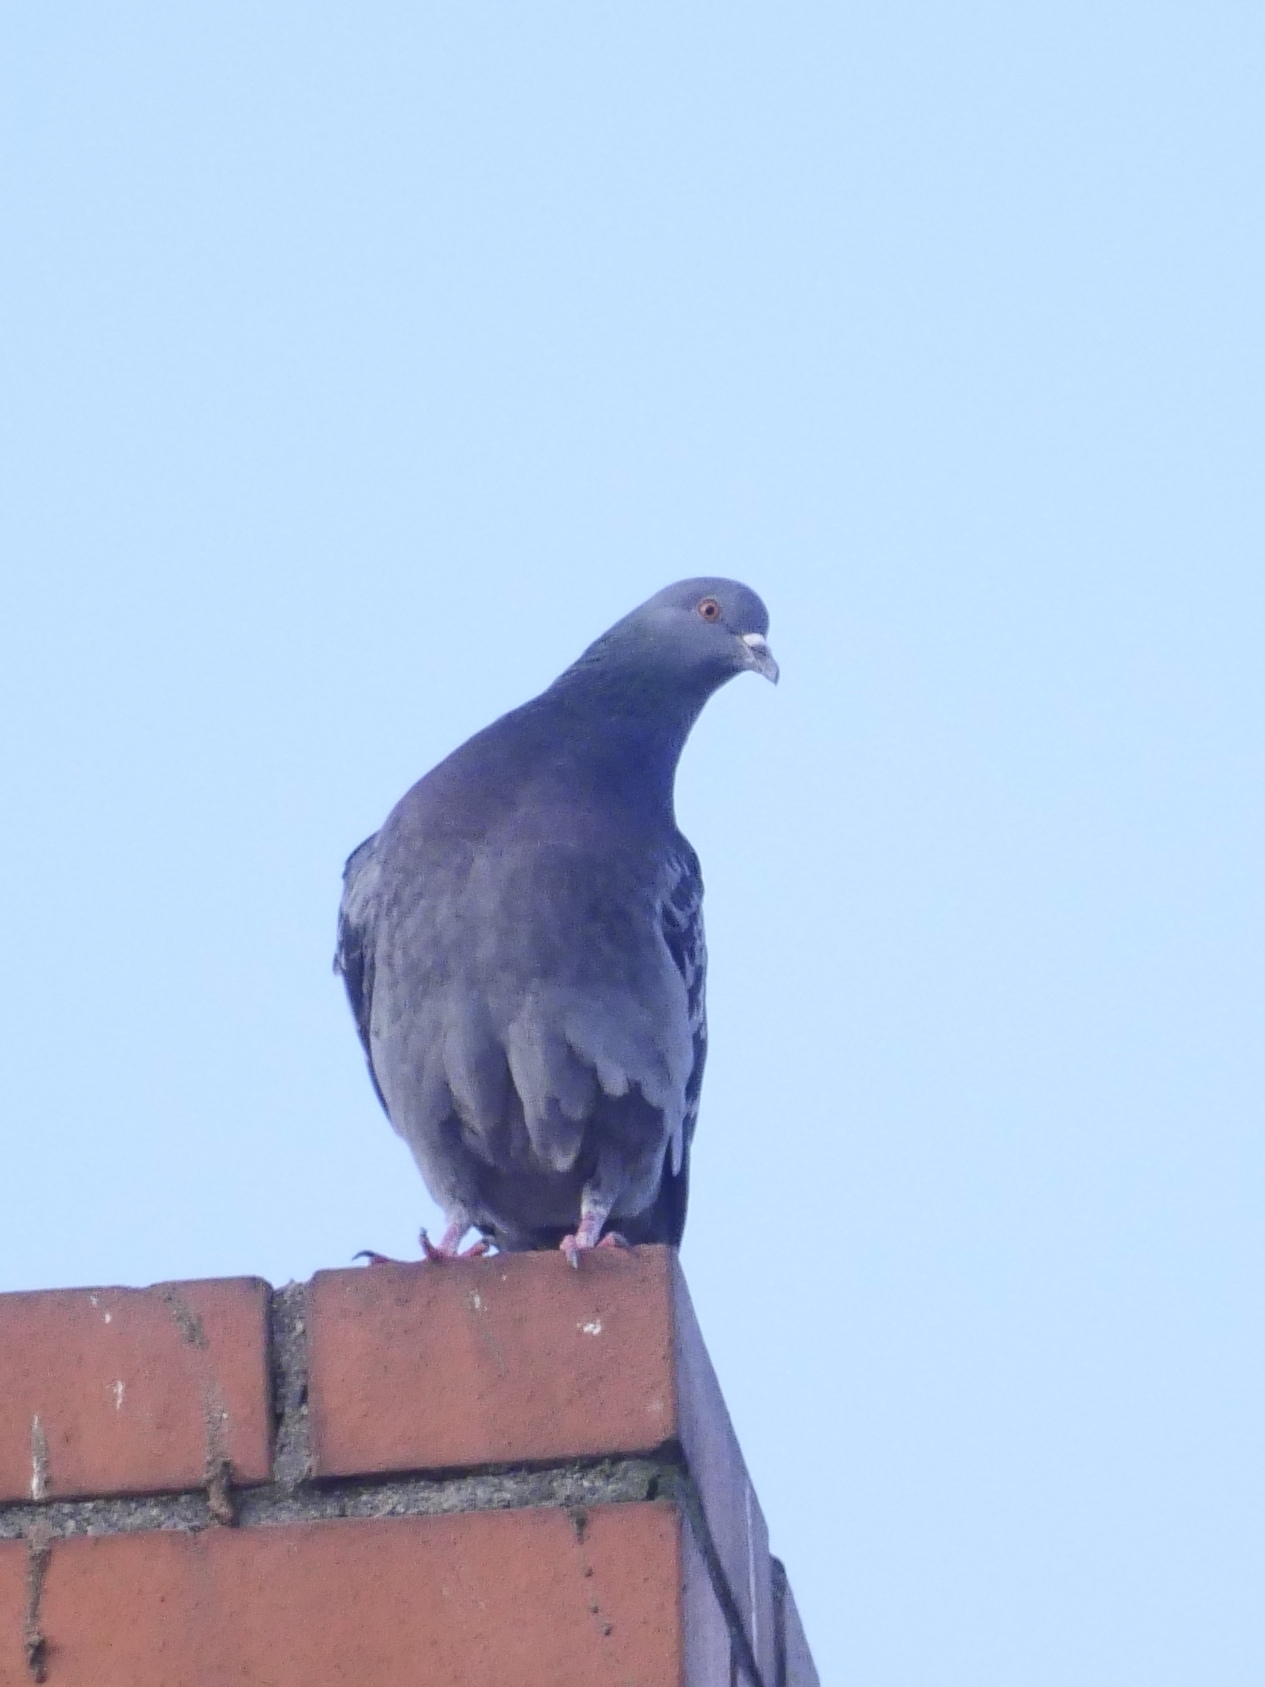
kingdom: Animalia
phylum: Chordata
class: Aves
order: Columbiformes
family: Columbidae
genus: Columba
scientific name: Columba livia
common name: Rock pigeon
